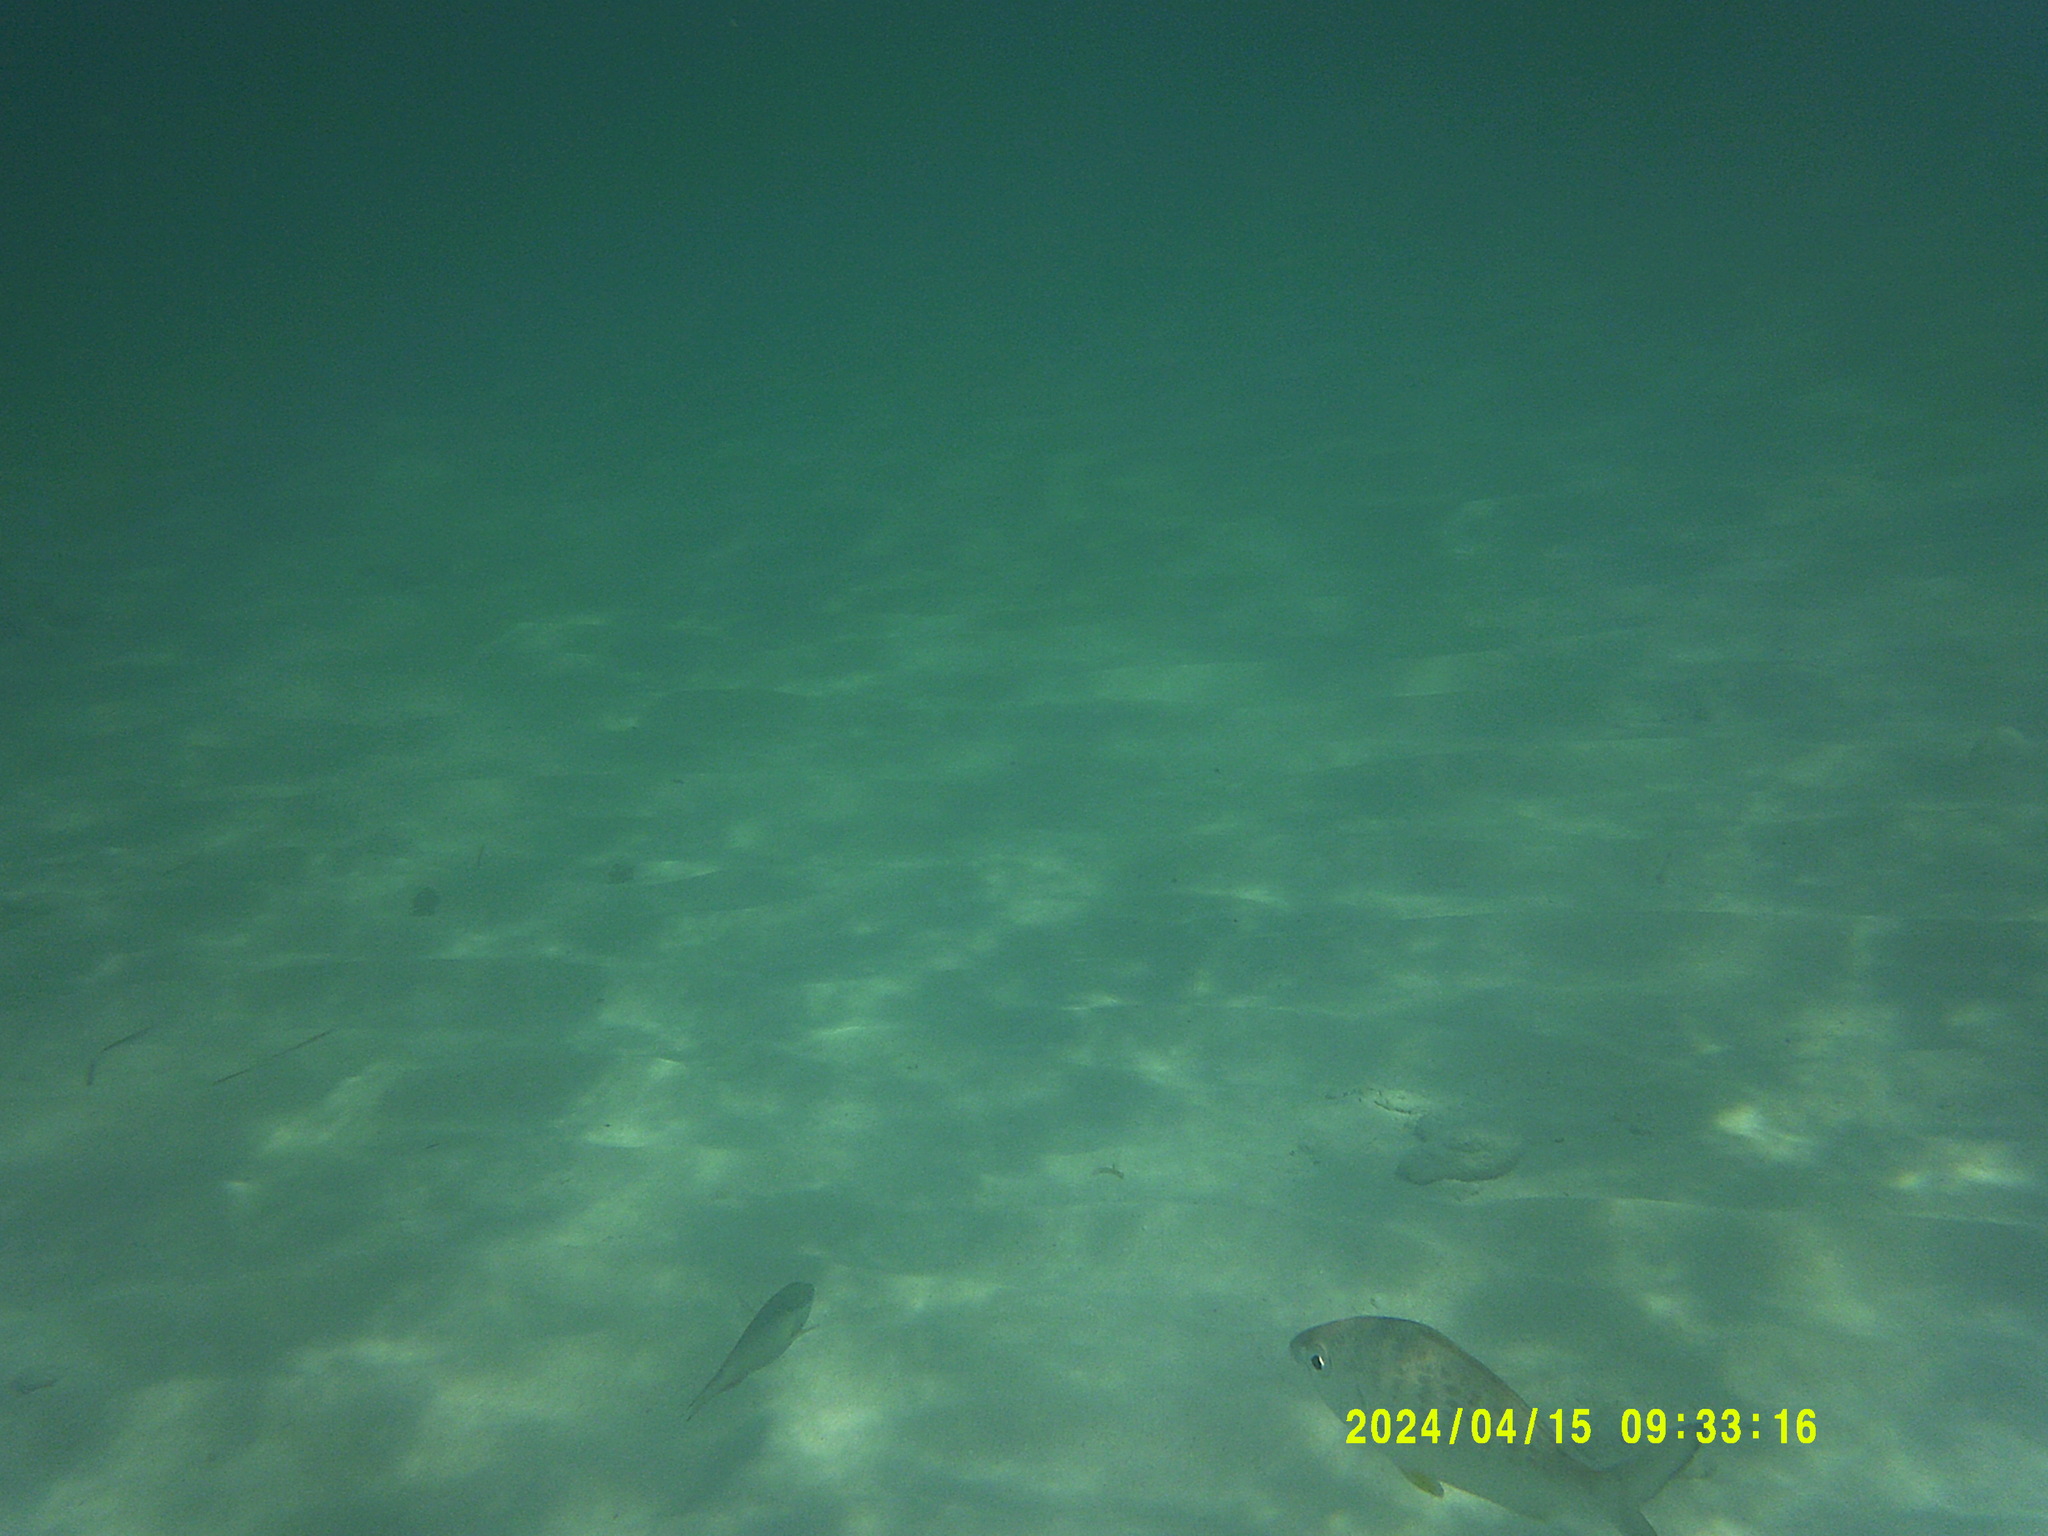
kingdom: Animalia
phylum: Chordata
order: Perciformes
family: Gerreidae
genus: Gerres
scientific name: Gerres cinereus
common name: Hedow
